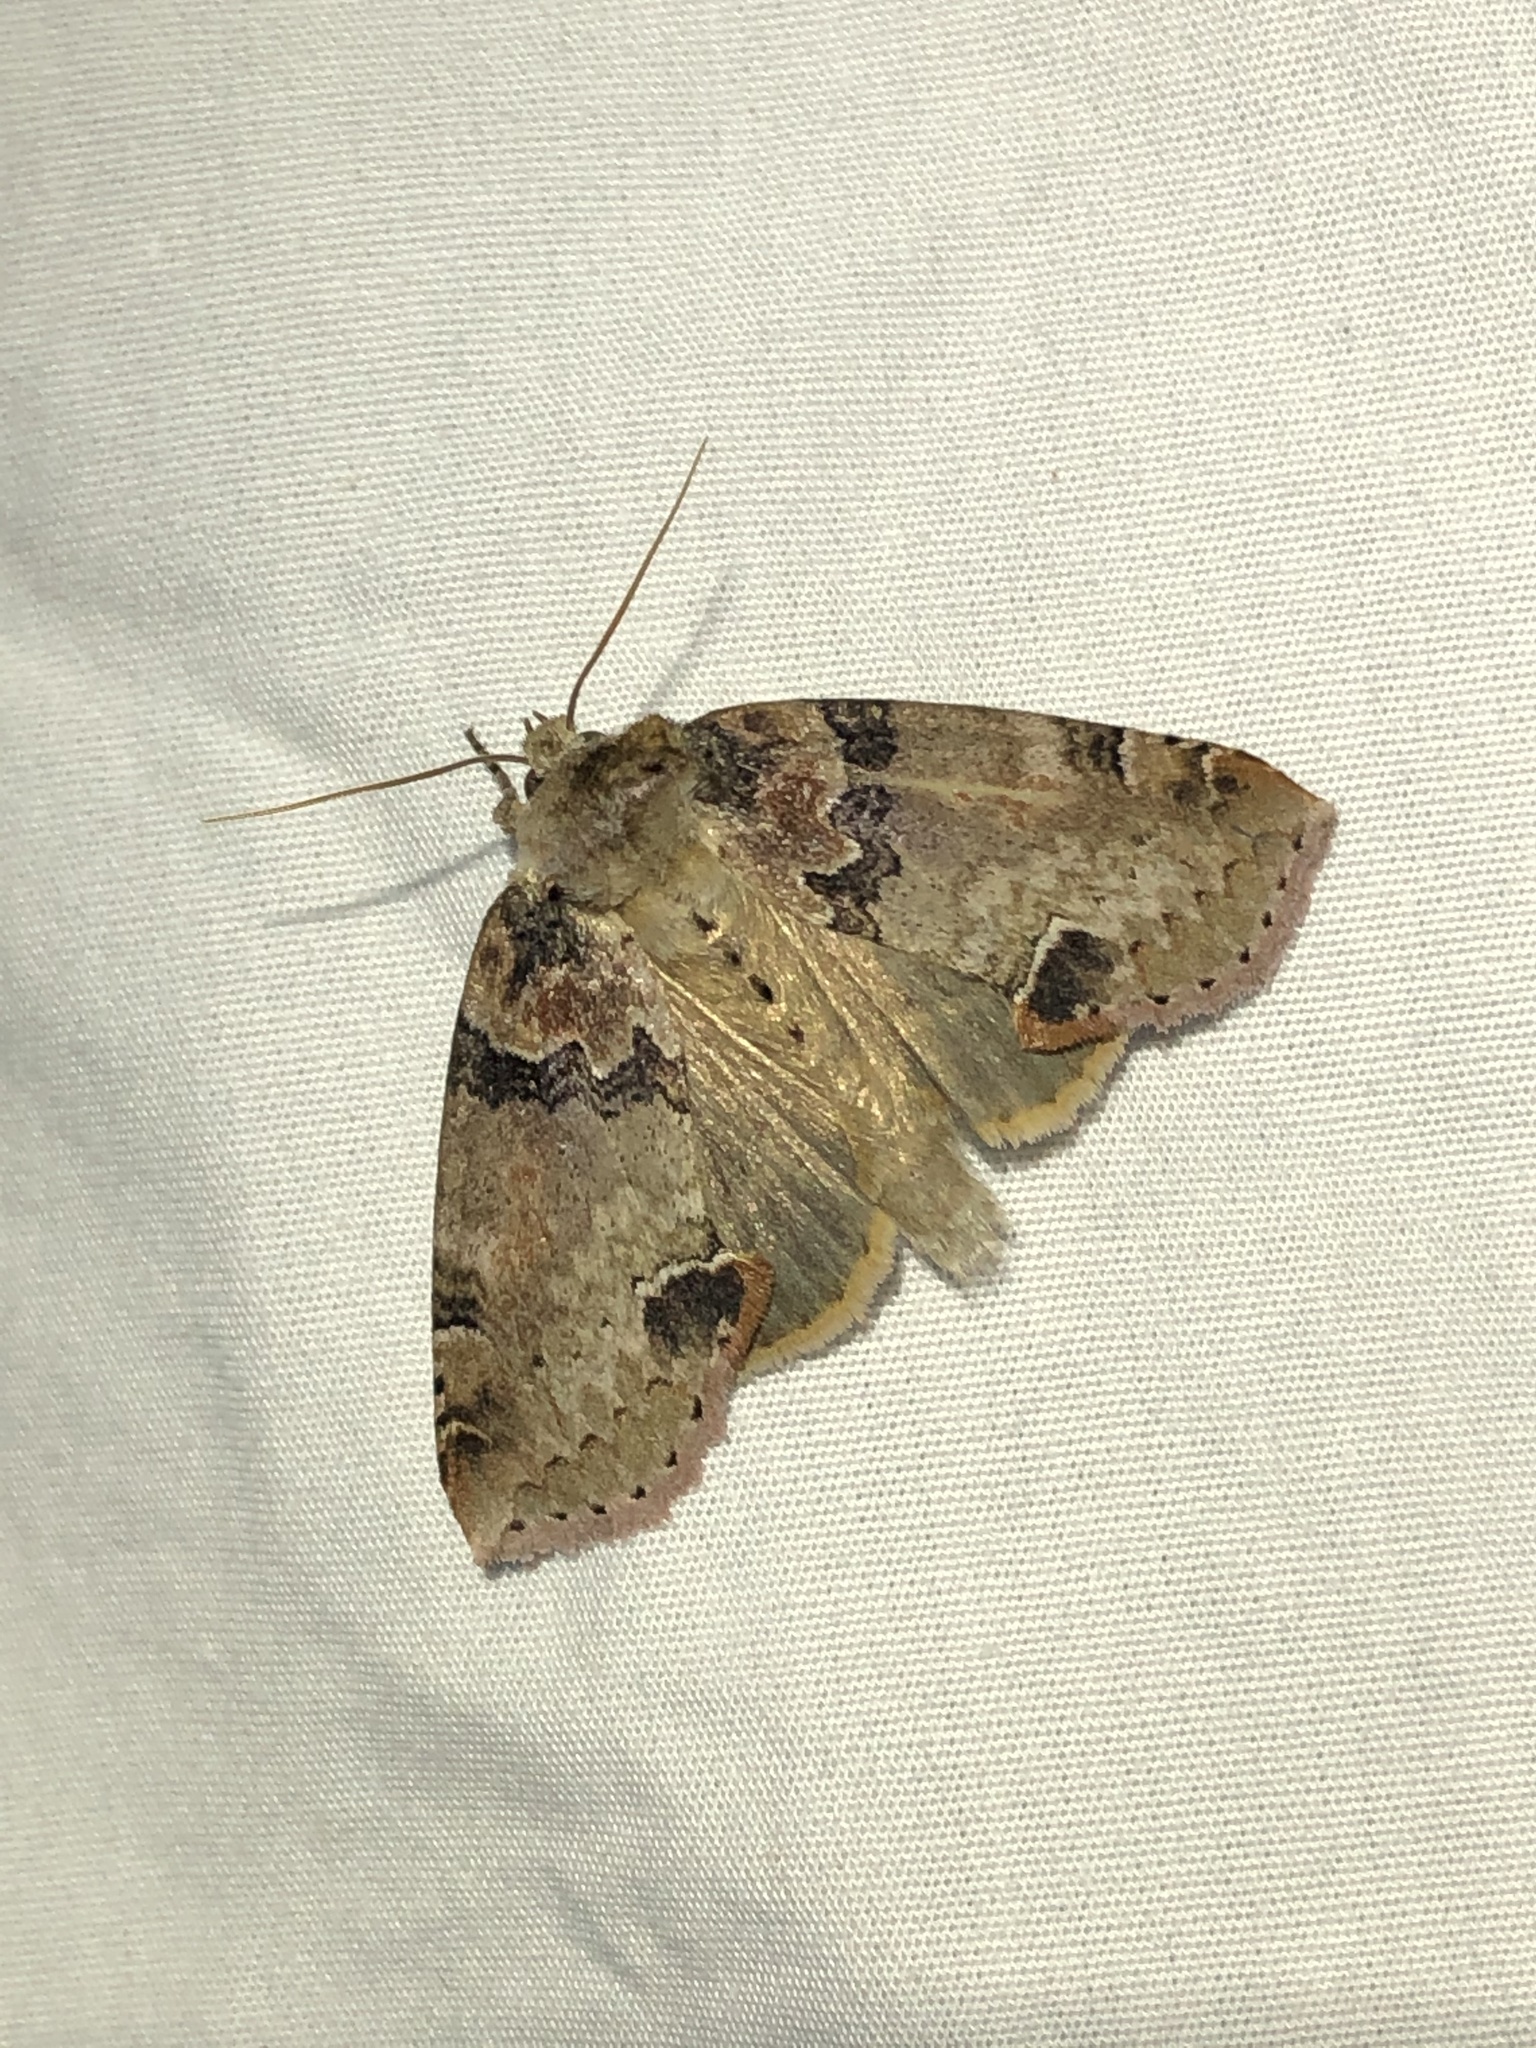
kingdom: Animalia
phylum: Arthropoda
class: Insecta
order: Lepidoptera
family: Drepanidae
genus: Pseudothyatira
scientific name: Pseudothyatira cymatophoroides
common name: Tufted thyatirid moth
